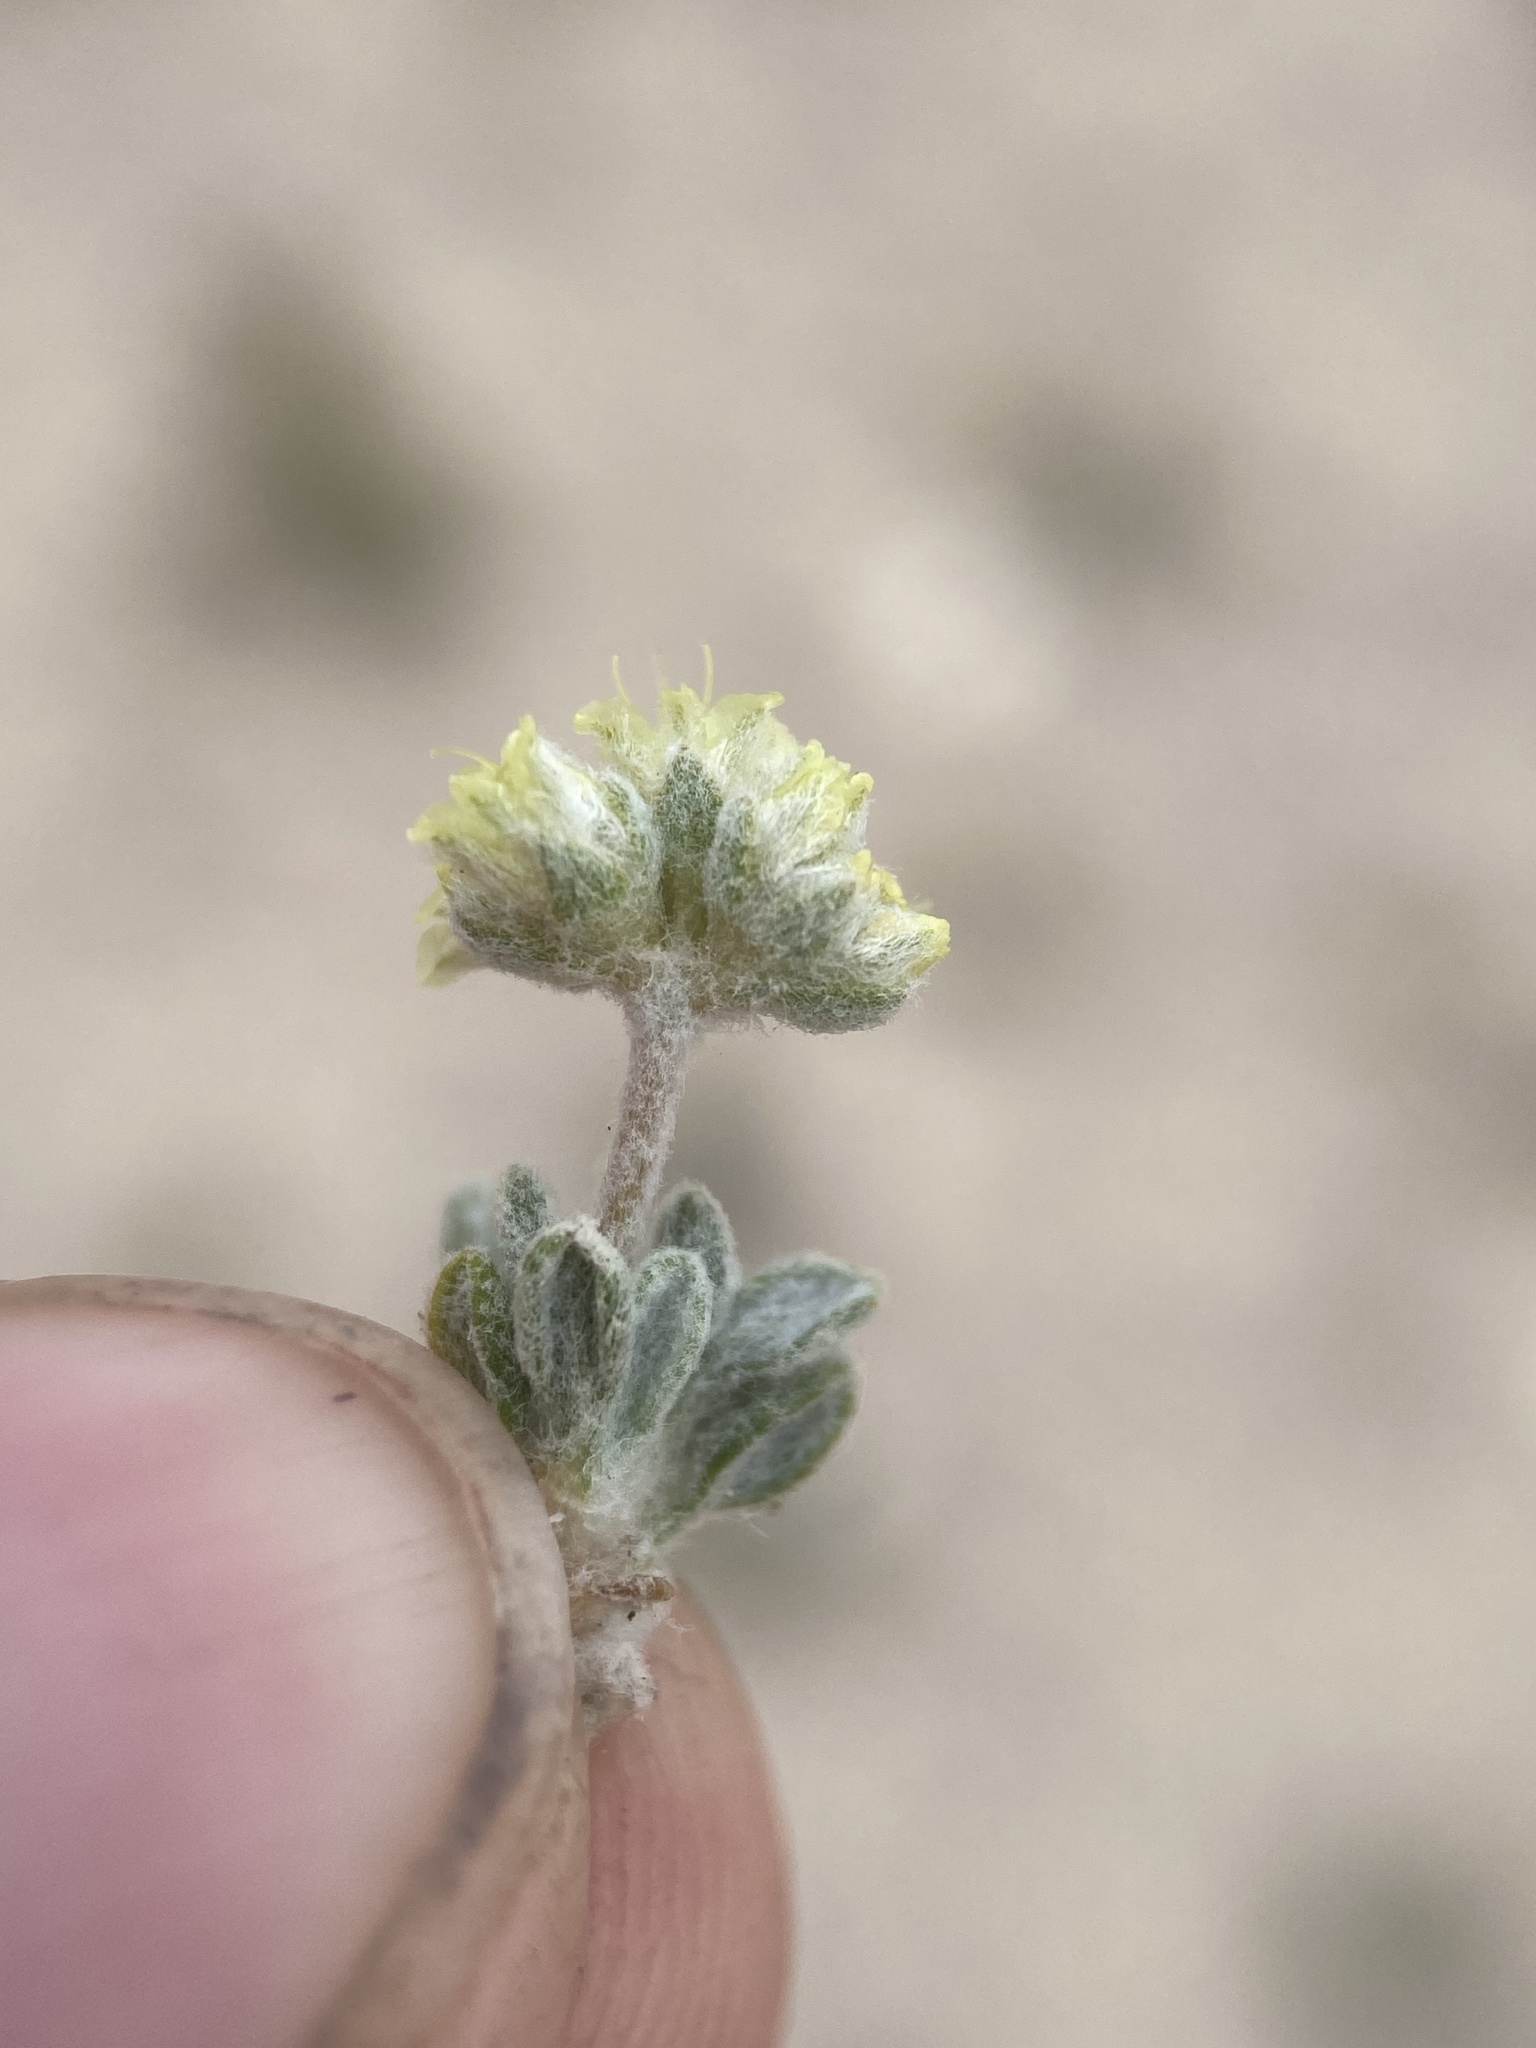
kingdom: Plantae
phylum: Tracheophyta
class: Magnoliopsida
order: Caryophyllales
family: Polygonaceae
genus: Eriogonum
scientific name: Eriogonum shockleyi
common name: Shockley's wild buckwheat
